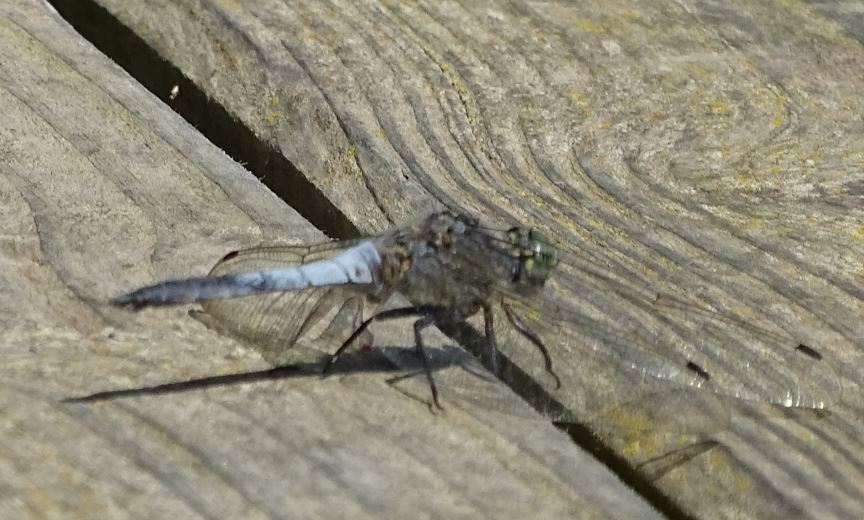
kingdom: Animalia
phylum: Arthropoda
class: Insecta
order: Odonata
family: Libellulidae
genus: Orthetrum
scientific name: Orthetrum cancellatum
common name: Black-tailed skimmer
